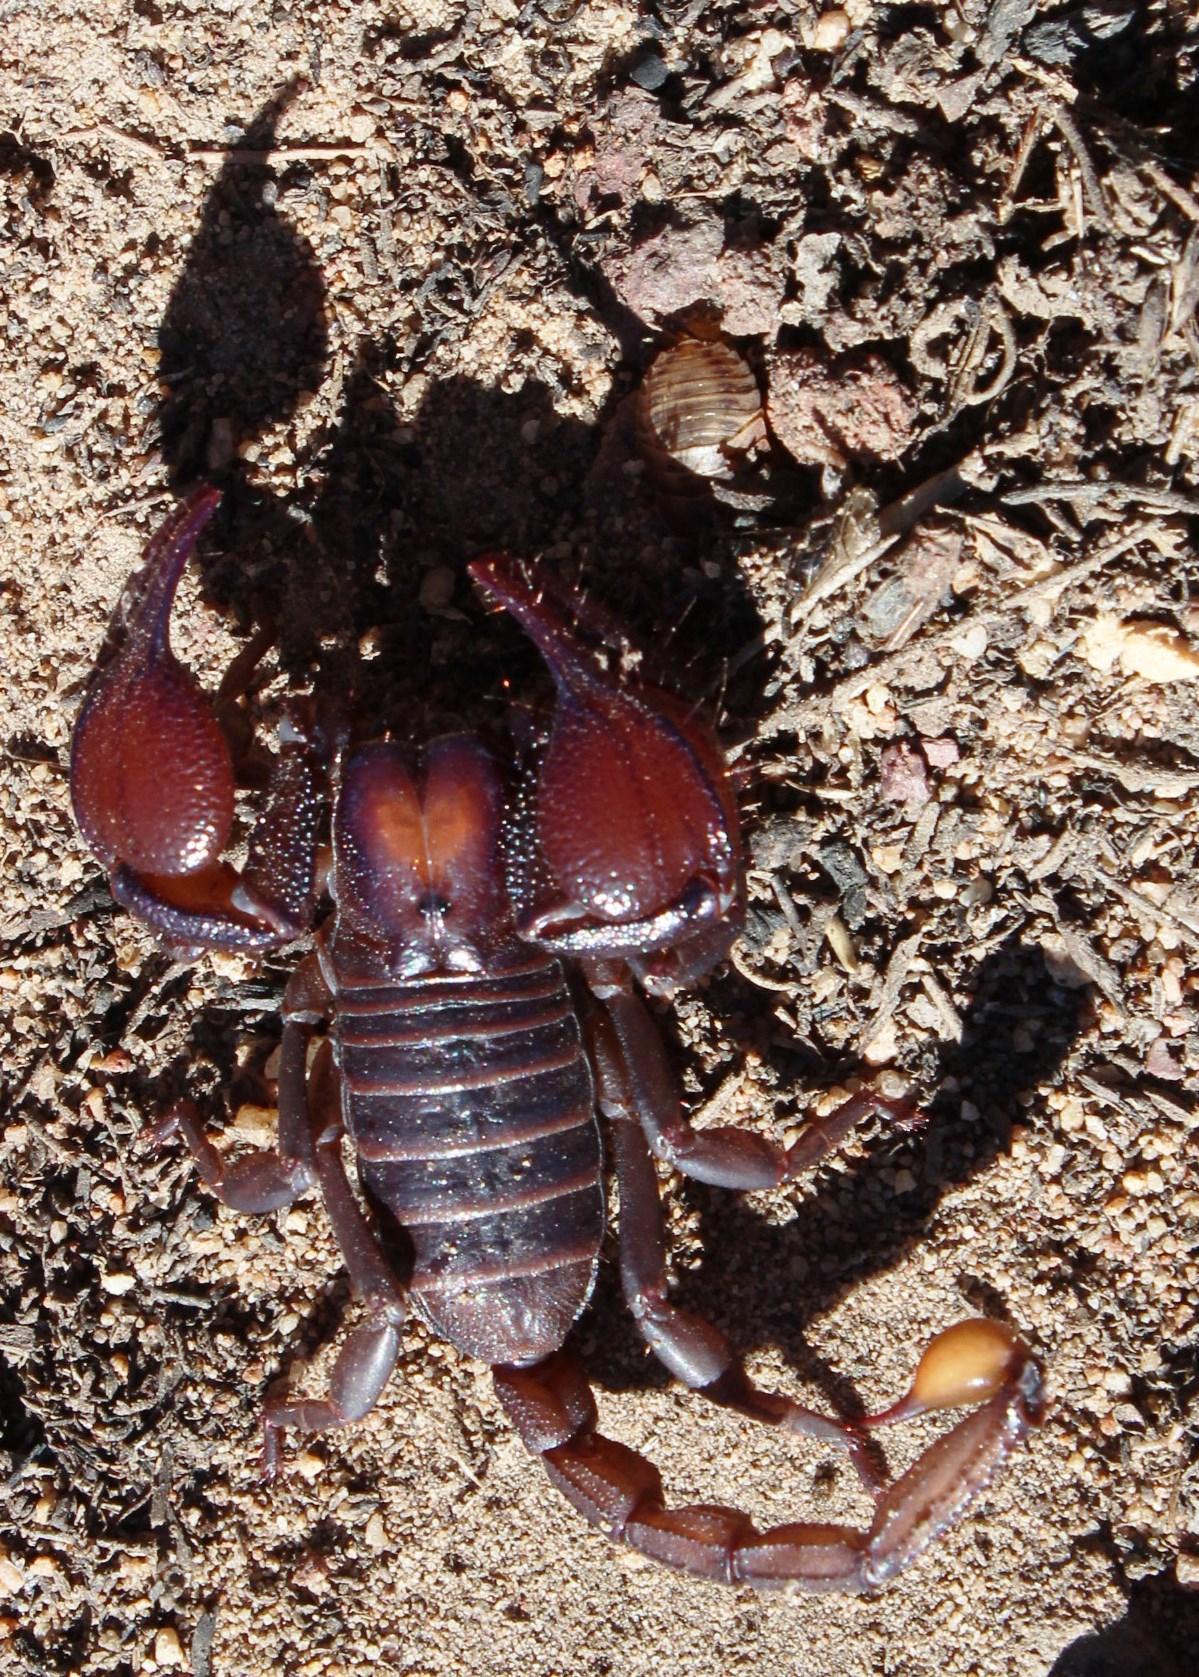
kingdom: Animalia
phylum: Arthropoda
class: Arachnida
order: Scorpiones
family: Scorpionidae
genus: Opistophthalmus
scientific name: Opistophthalmus pattisoni
